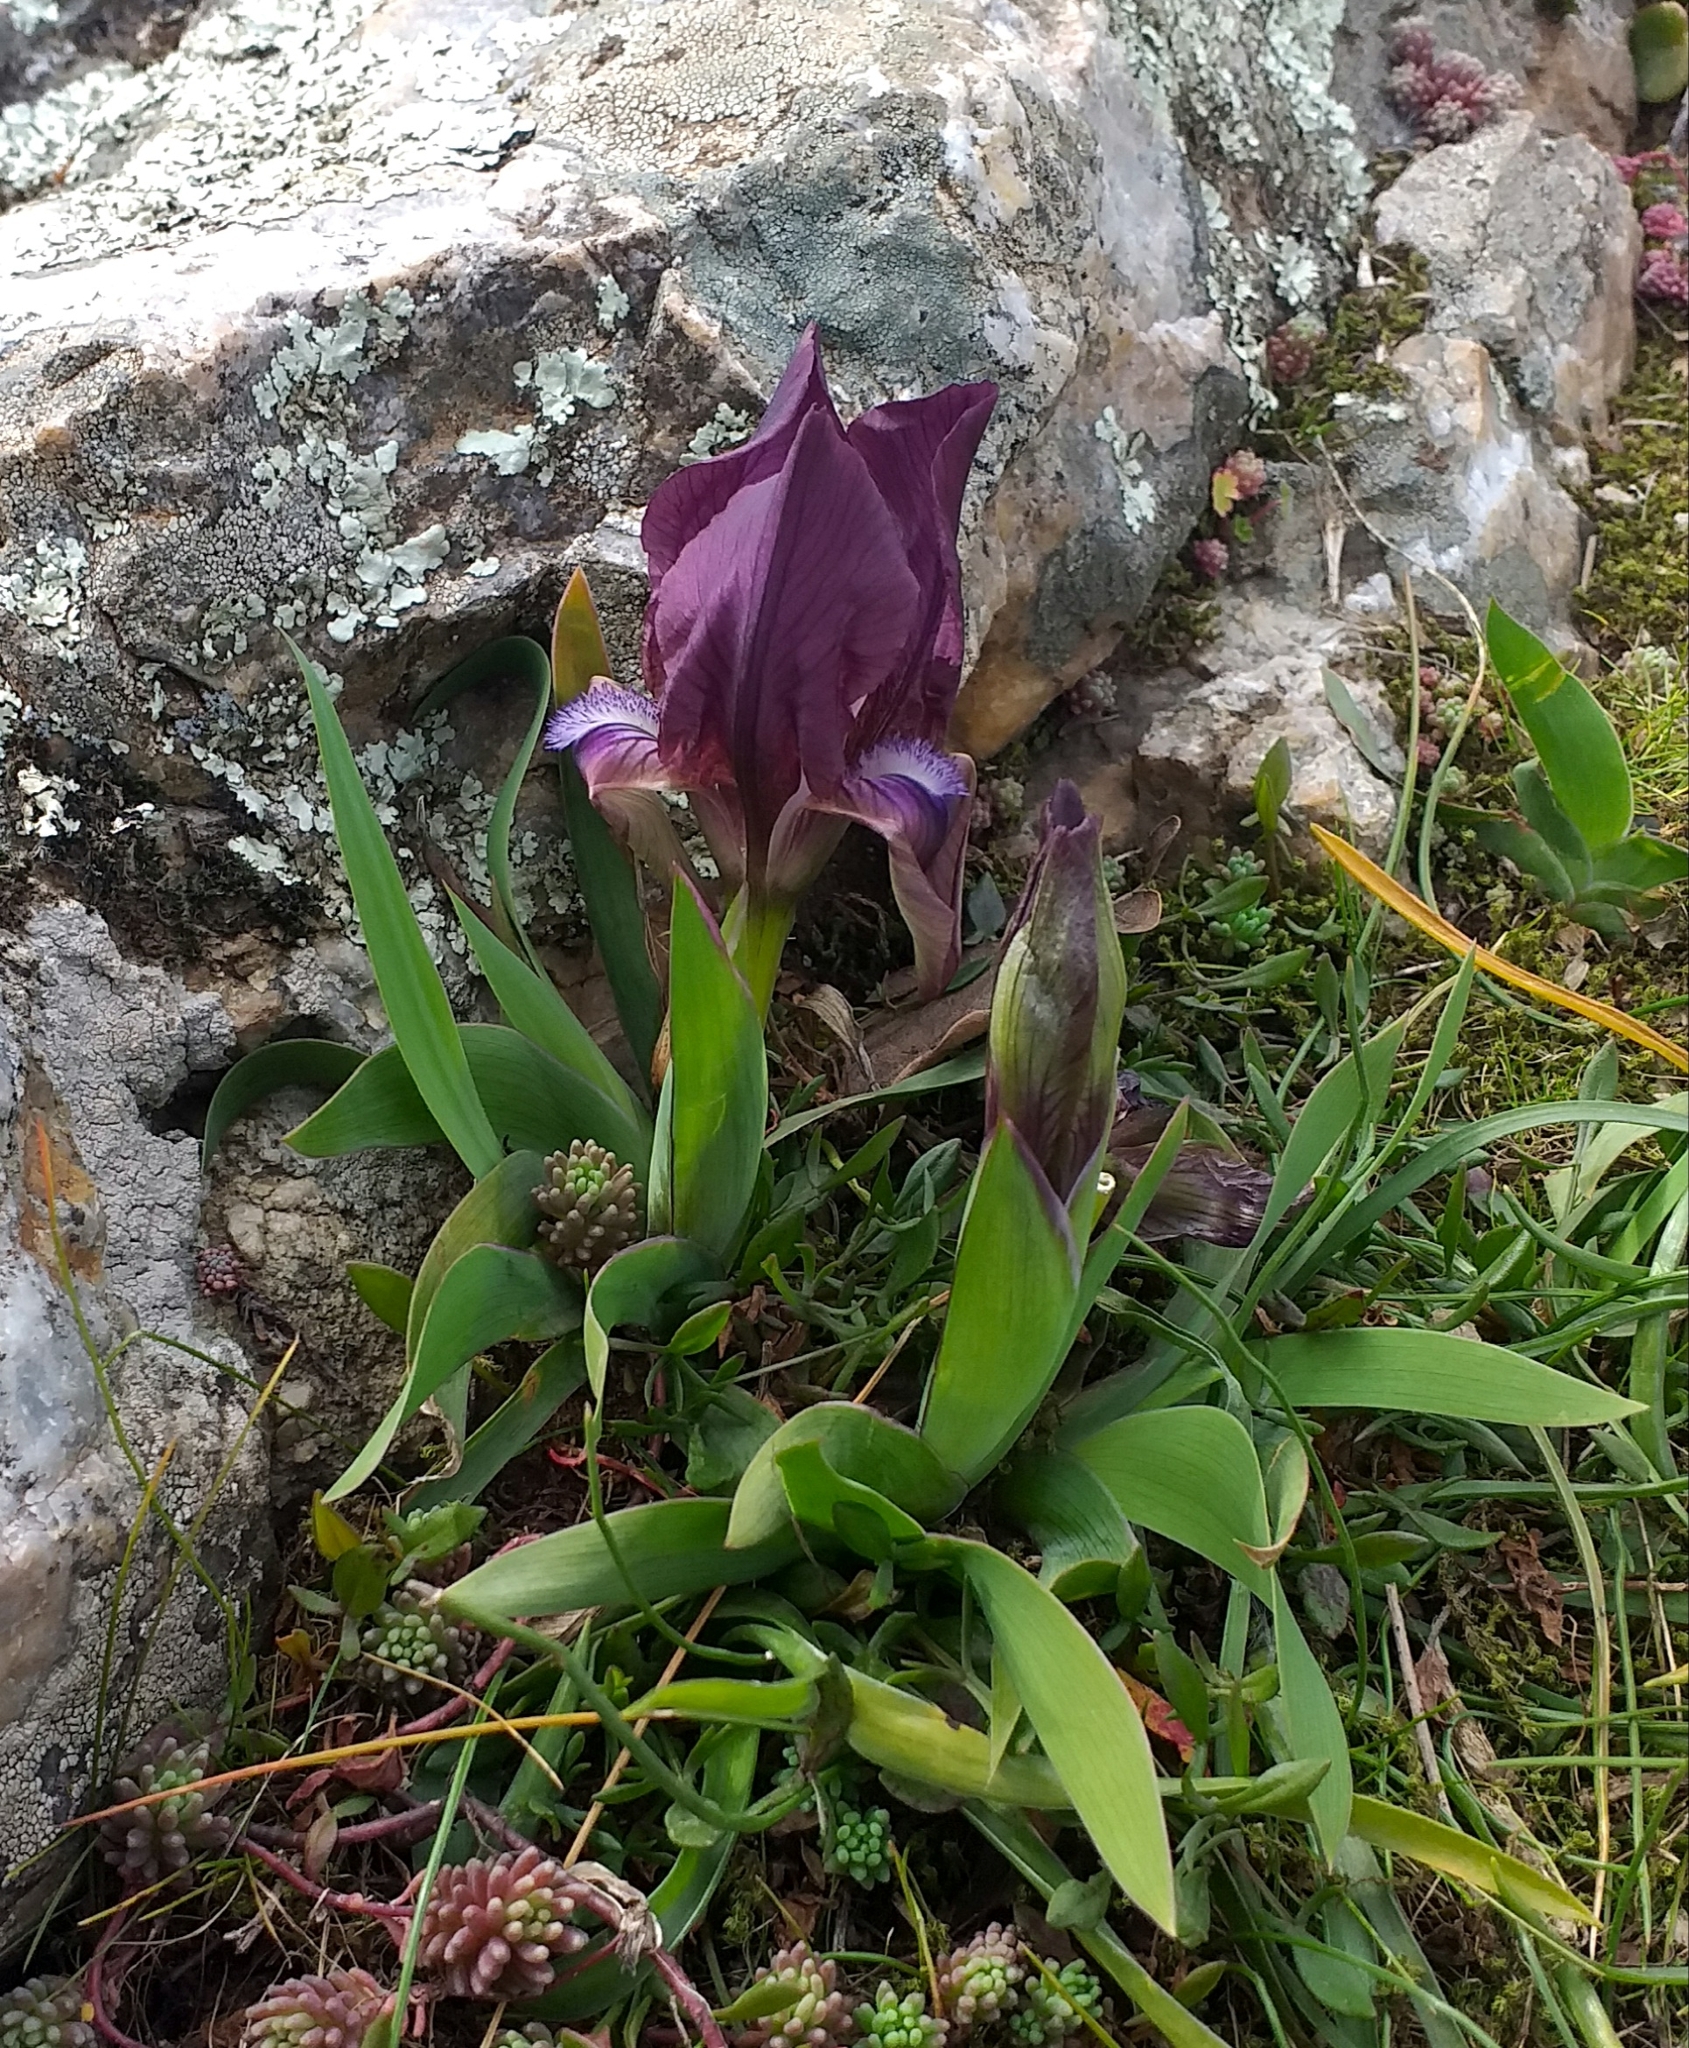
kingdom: Plantae
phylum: Tracheophyta
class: Liliopsida
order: Asparagales
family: Iridaceae
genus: Iris
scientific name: Iris suaveolens
